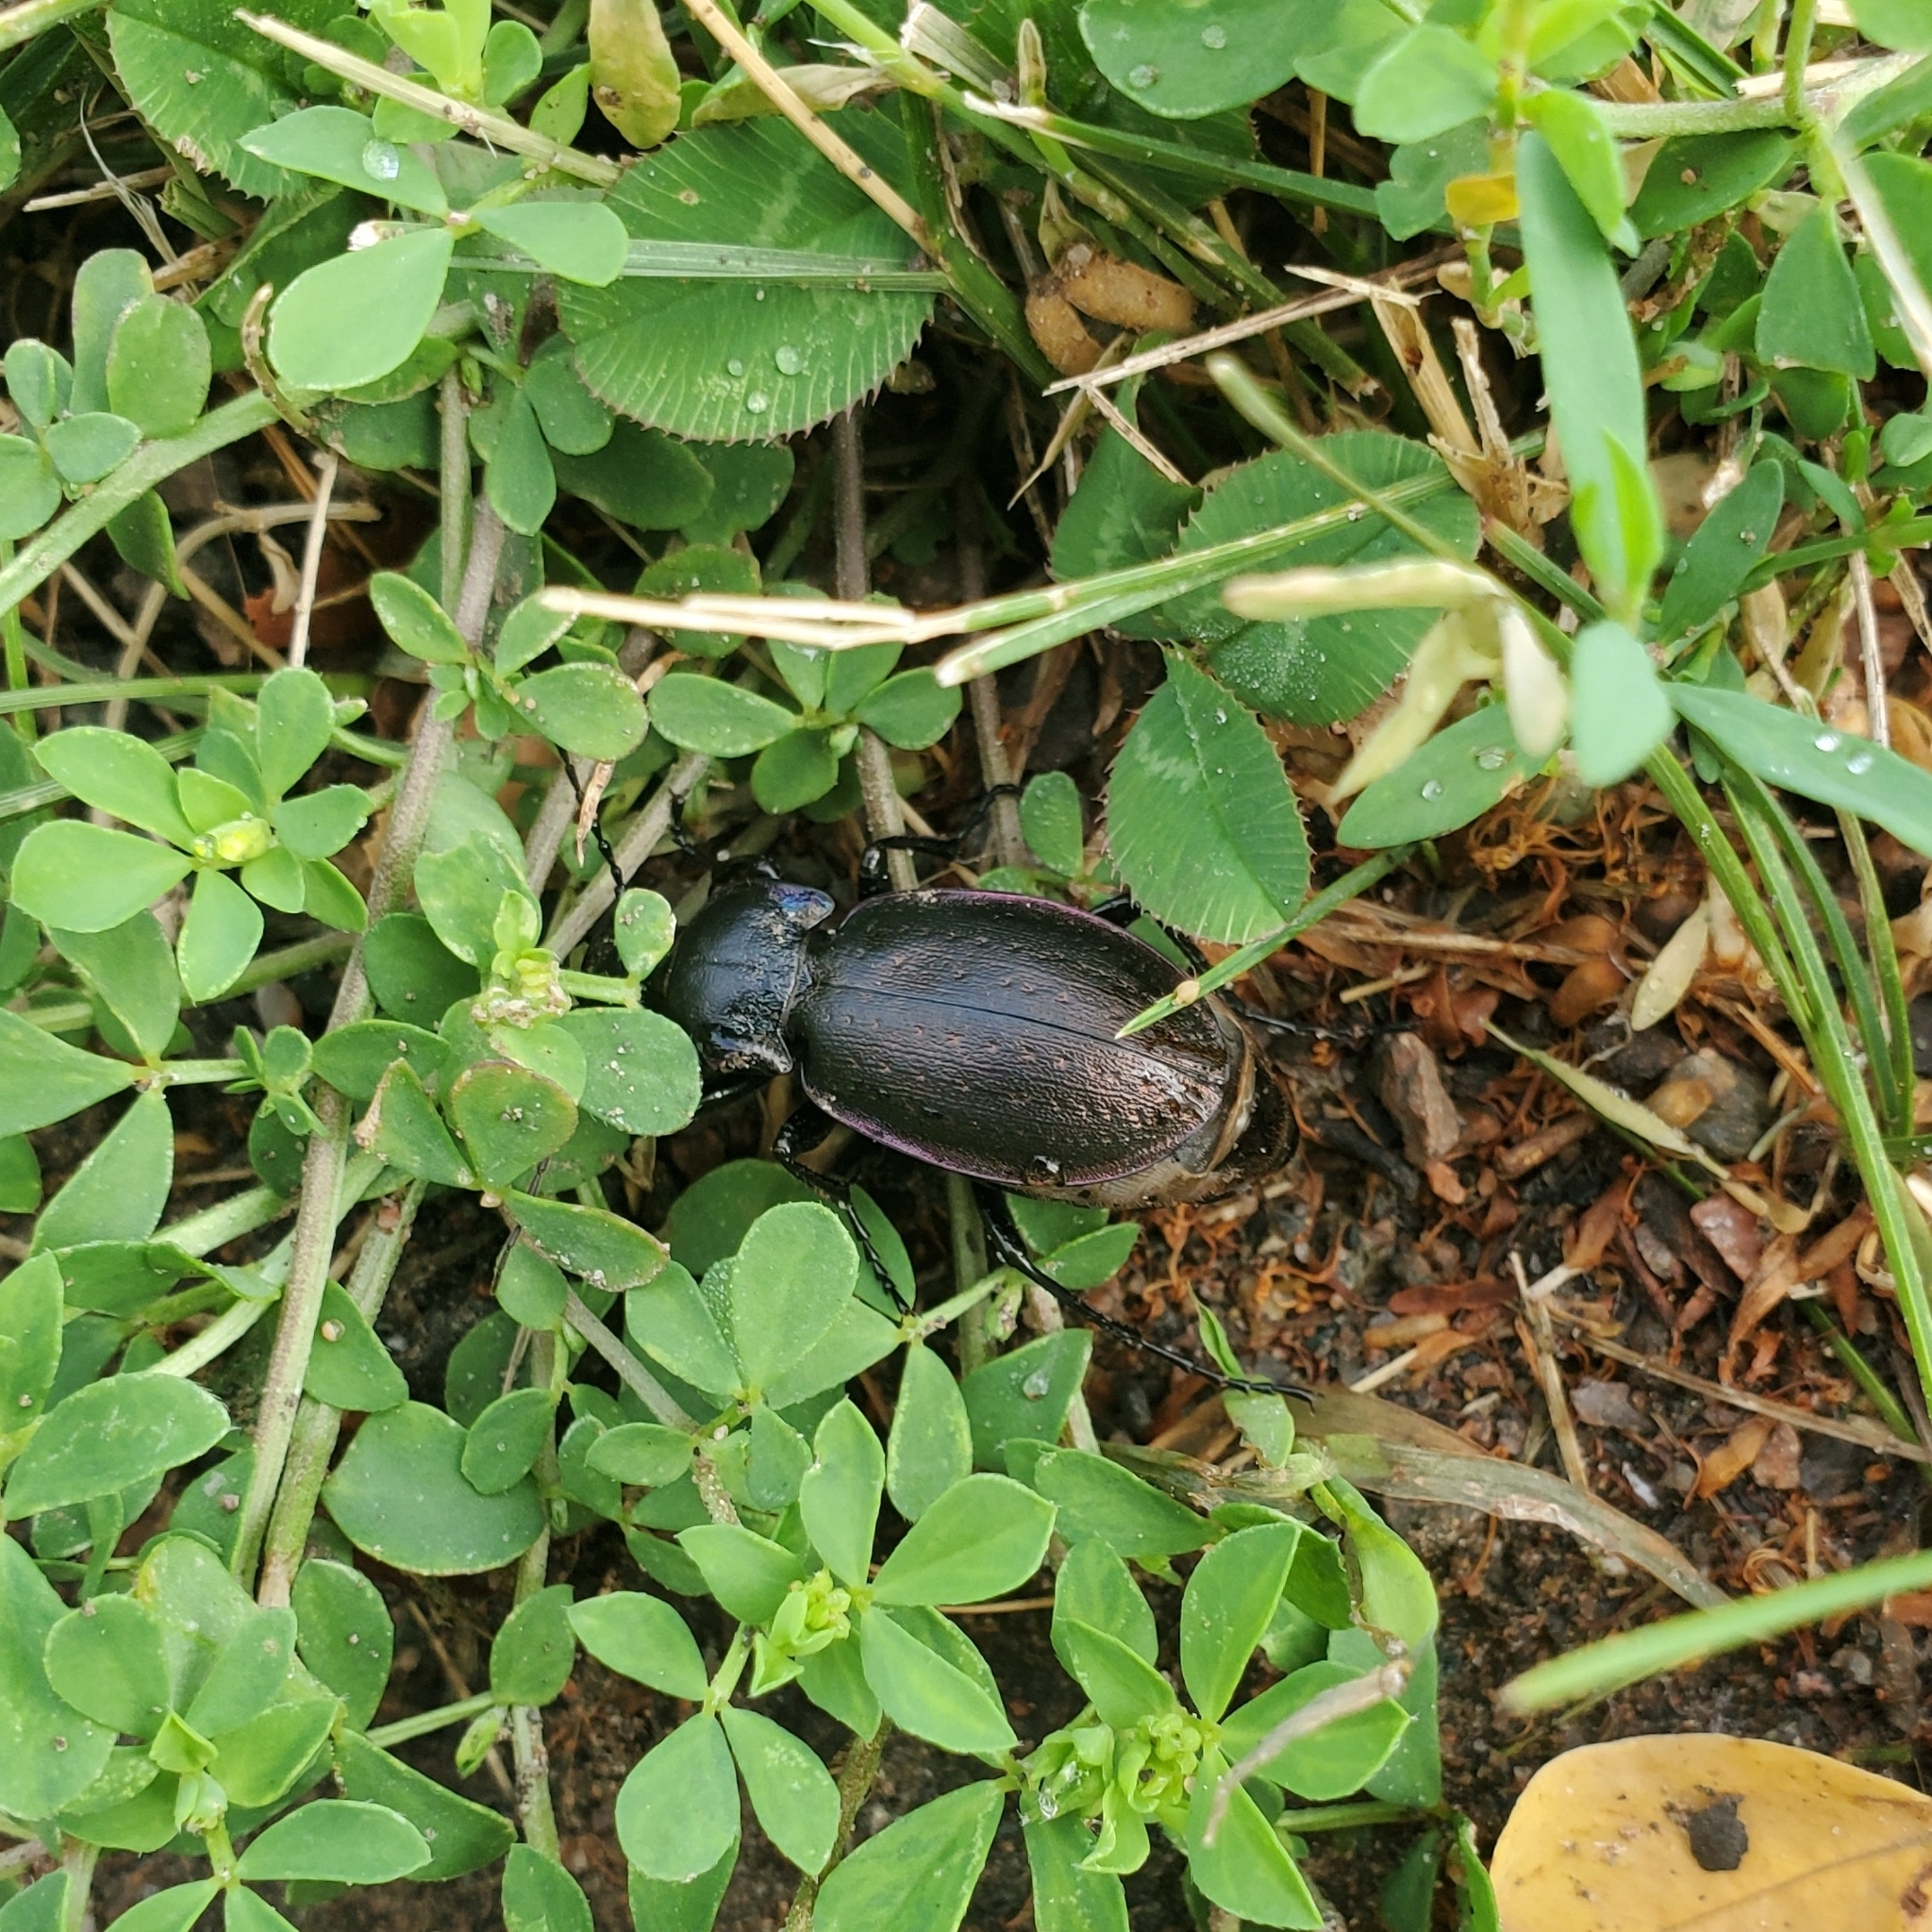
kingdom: Animalia
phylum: Arthropoda
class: Insecta
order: Coleoptera
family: Carabidae
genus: Carabus
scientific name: Carabus nemoralis
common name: European ground beetle
